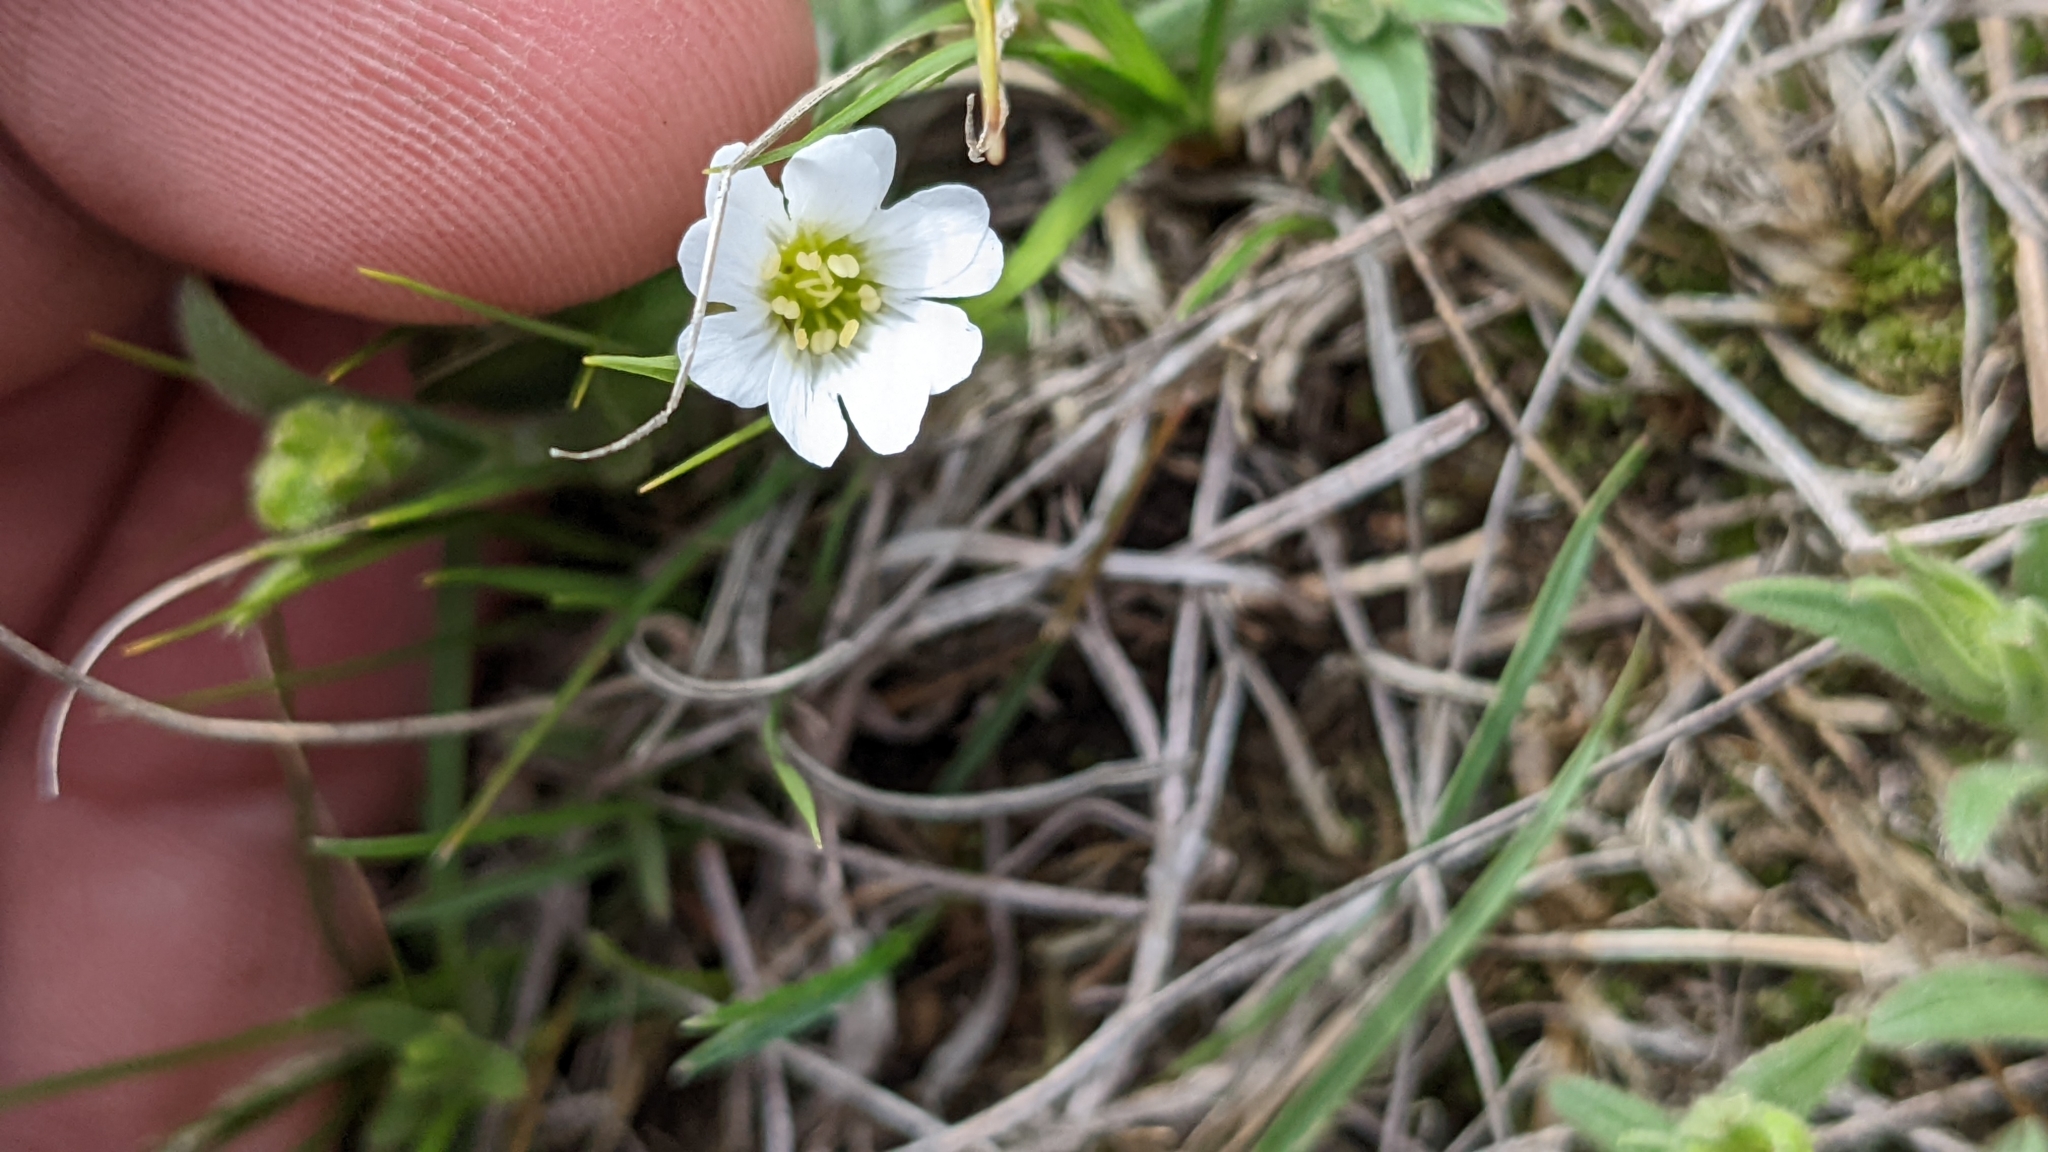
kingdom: Plantae
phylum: Tracheophyta
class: Magnoliopsida
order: Caryophyllales
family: Caryophyllaceae
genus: Cerastium
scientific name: Cerastium arvense
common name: Field mouse-ear
